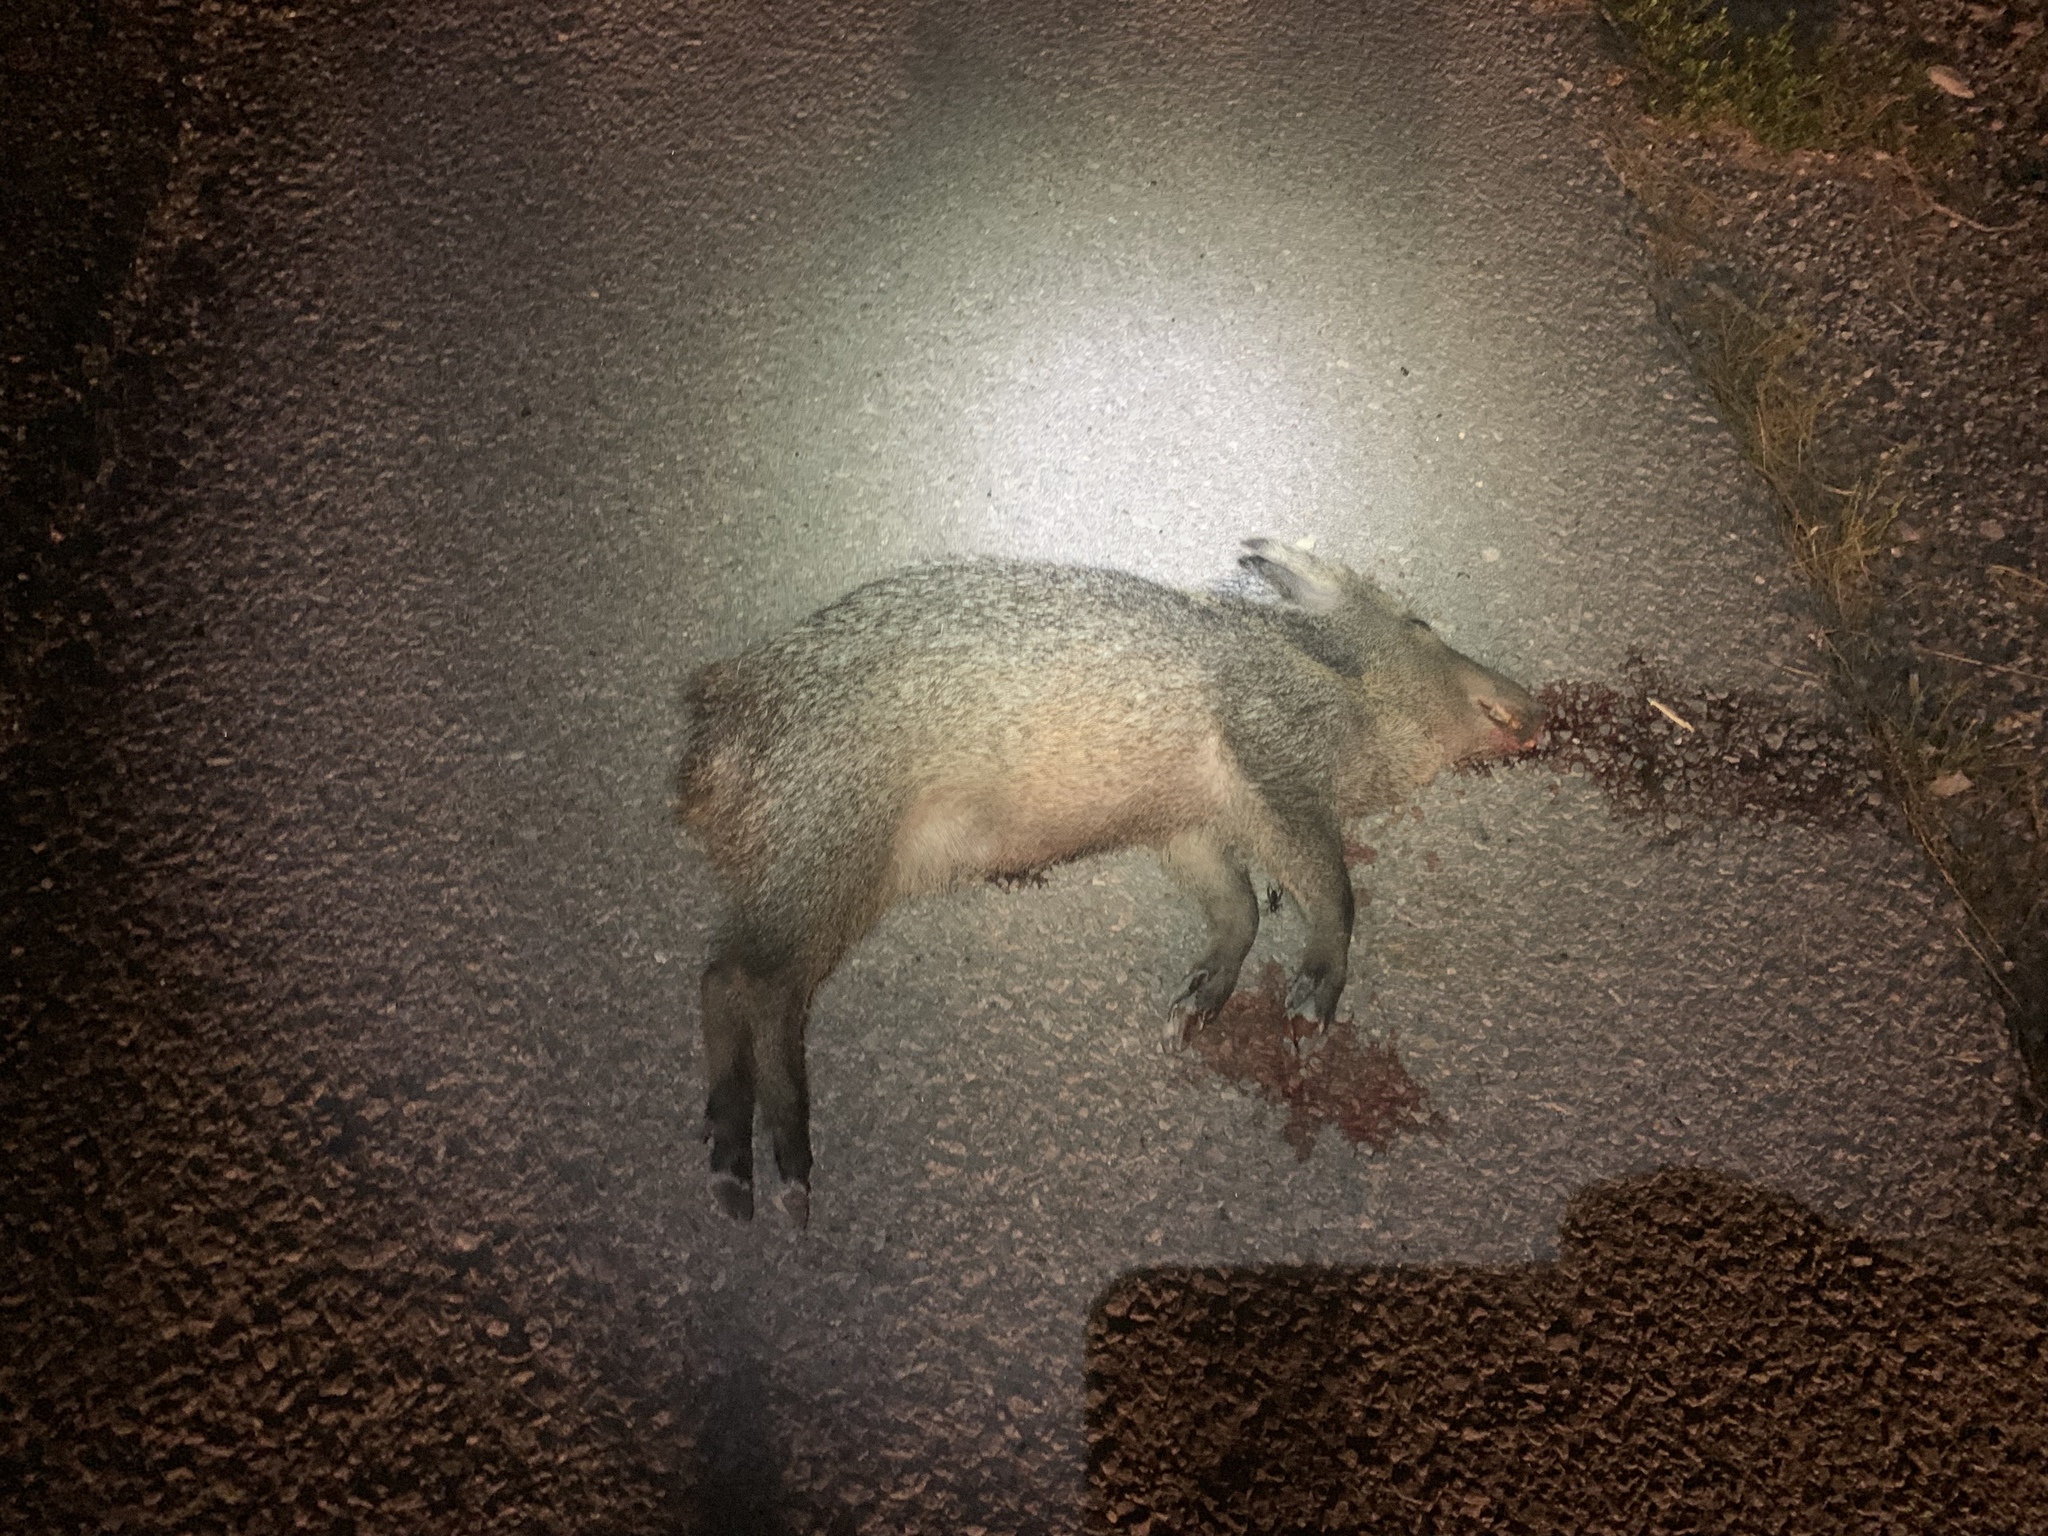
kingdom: Animalia
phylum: Chordata
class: Mammalia
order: Artiodactyla
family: Tayassuidae
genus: Pecari
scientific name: Pecari tajacu
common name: Collared peccary
